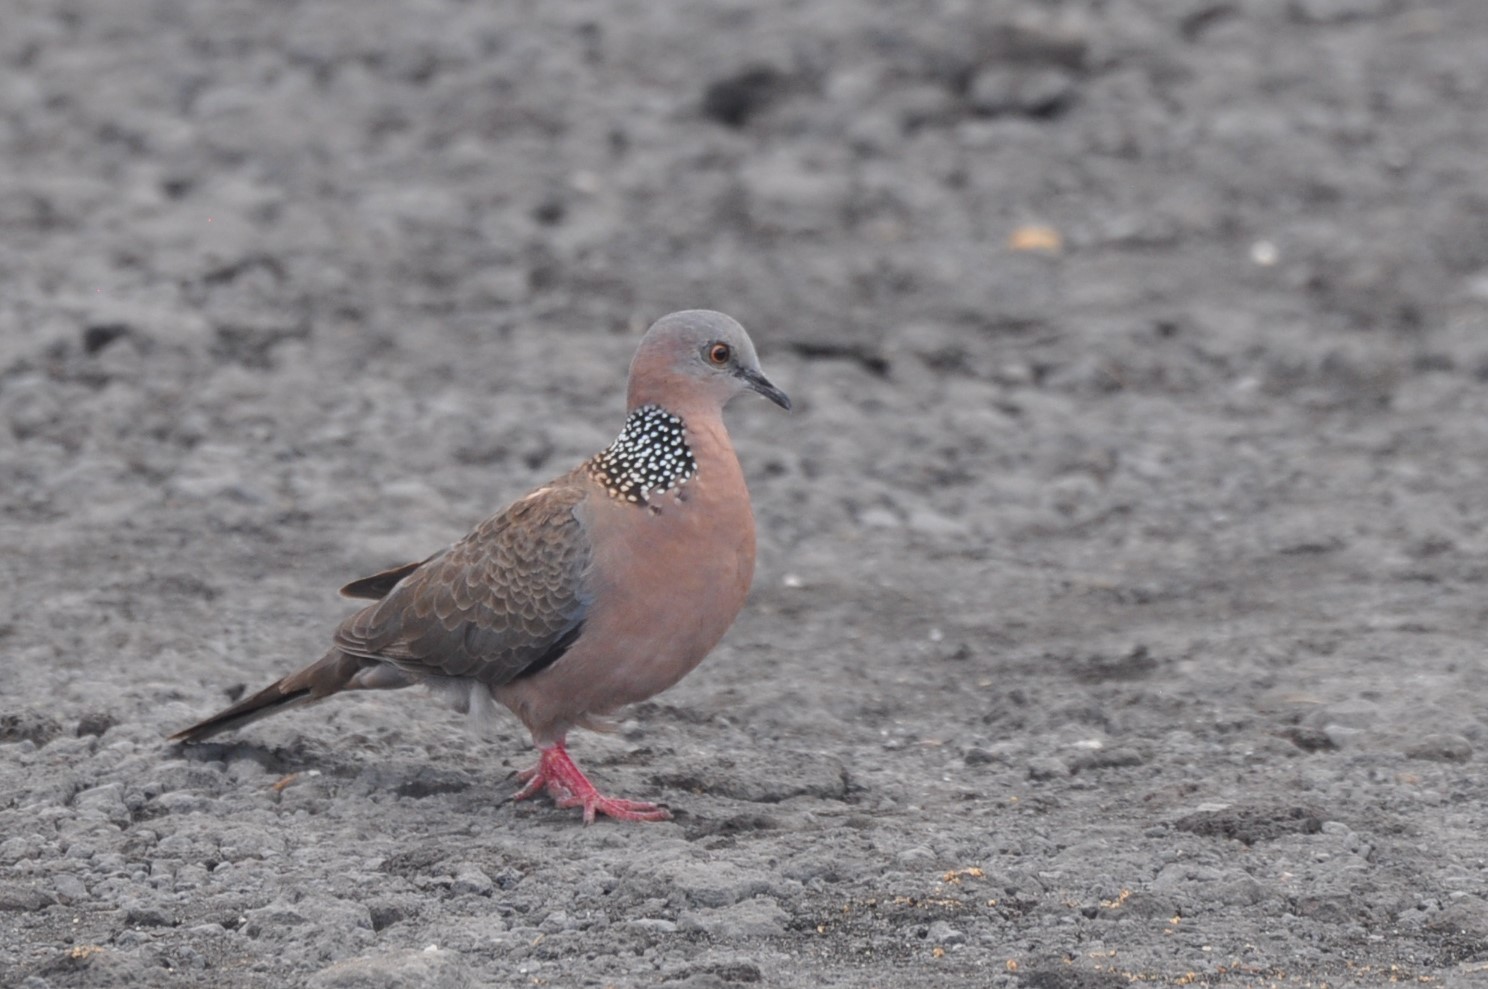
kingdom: Animalia
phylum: Chordata
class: Aves
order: Columbiformes
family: Columbidae
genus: Spilopelia
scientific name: Spilopelia chinensis
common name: Spotted dove
